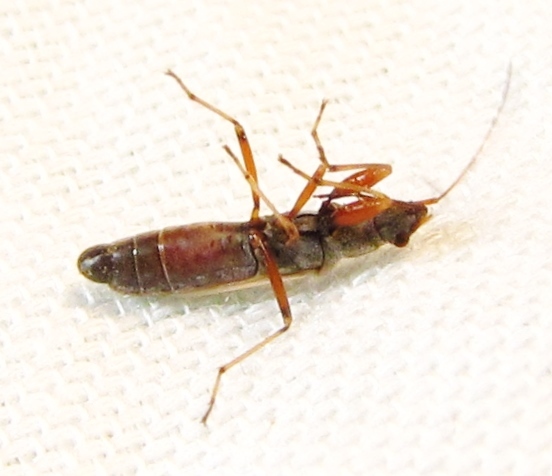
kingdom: Animalia
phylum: Arthropoda
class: Insecta
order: Hemiptera
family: Rhyparochromidae
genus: Paromius
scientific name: Paromius longulus
